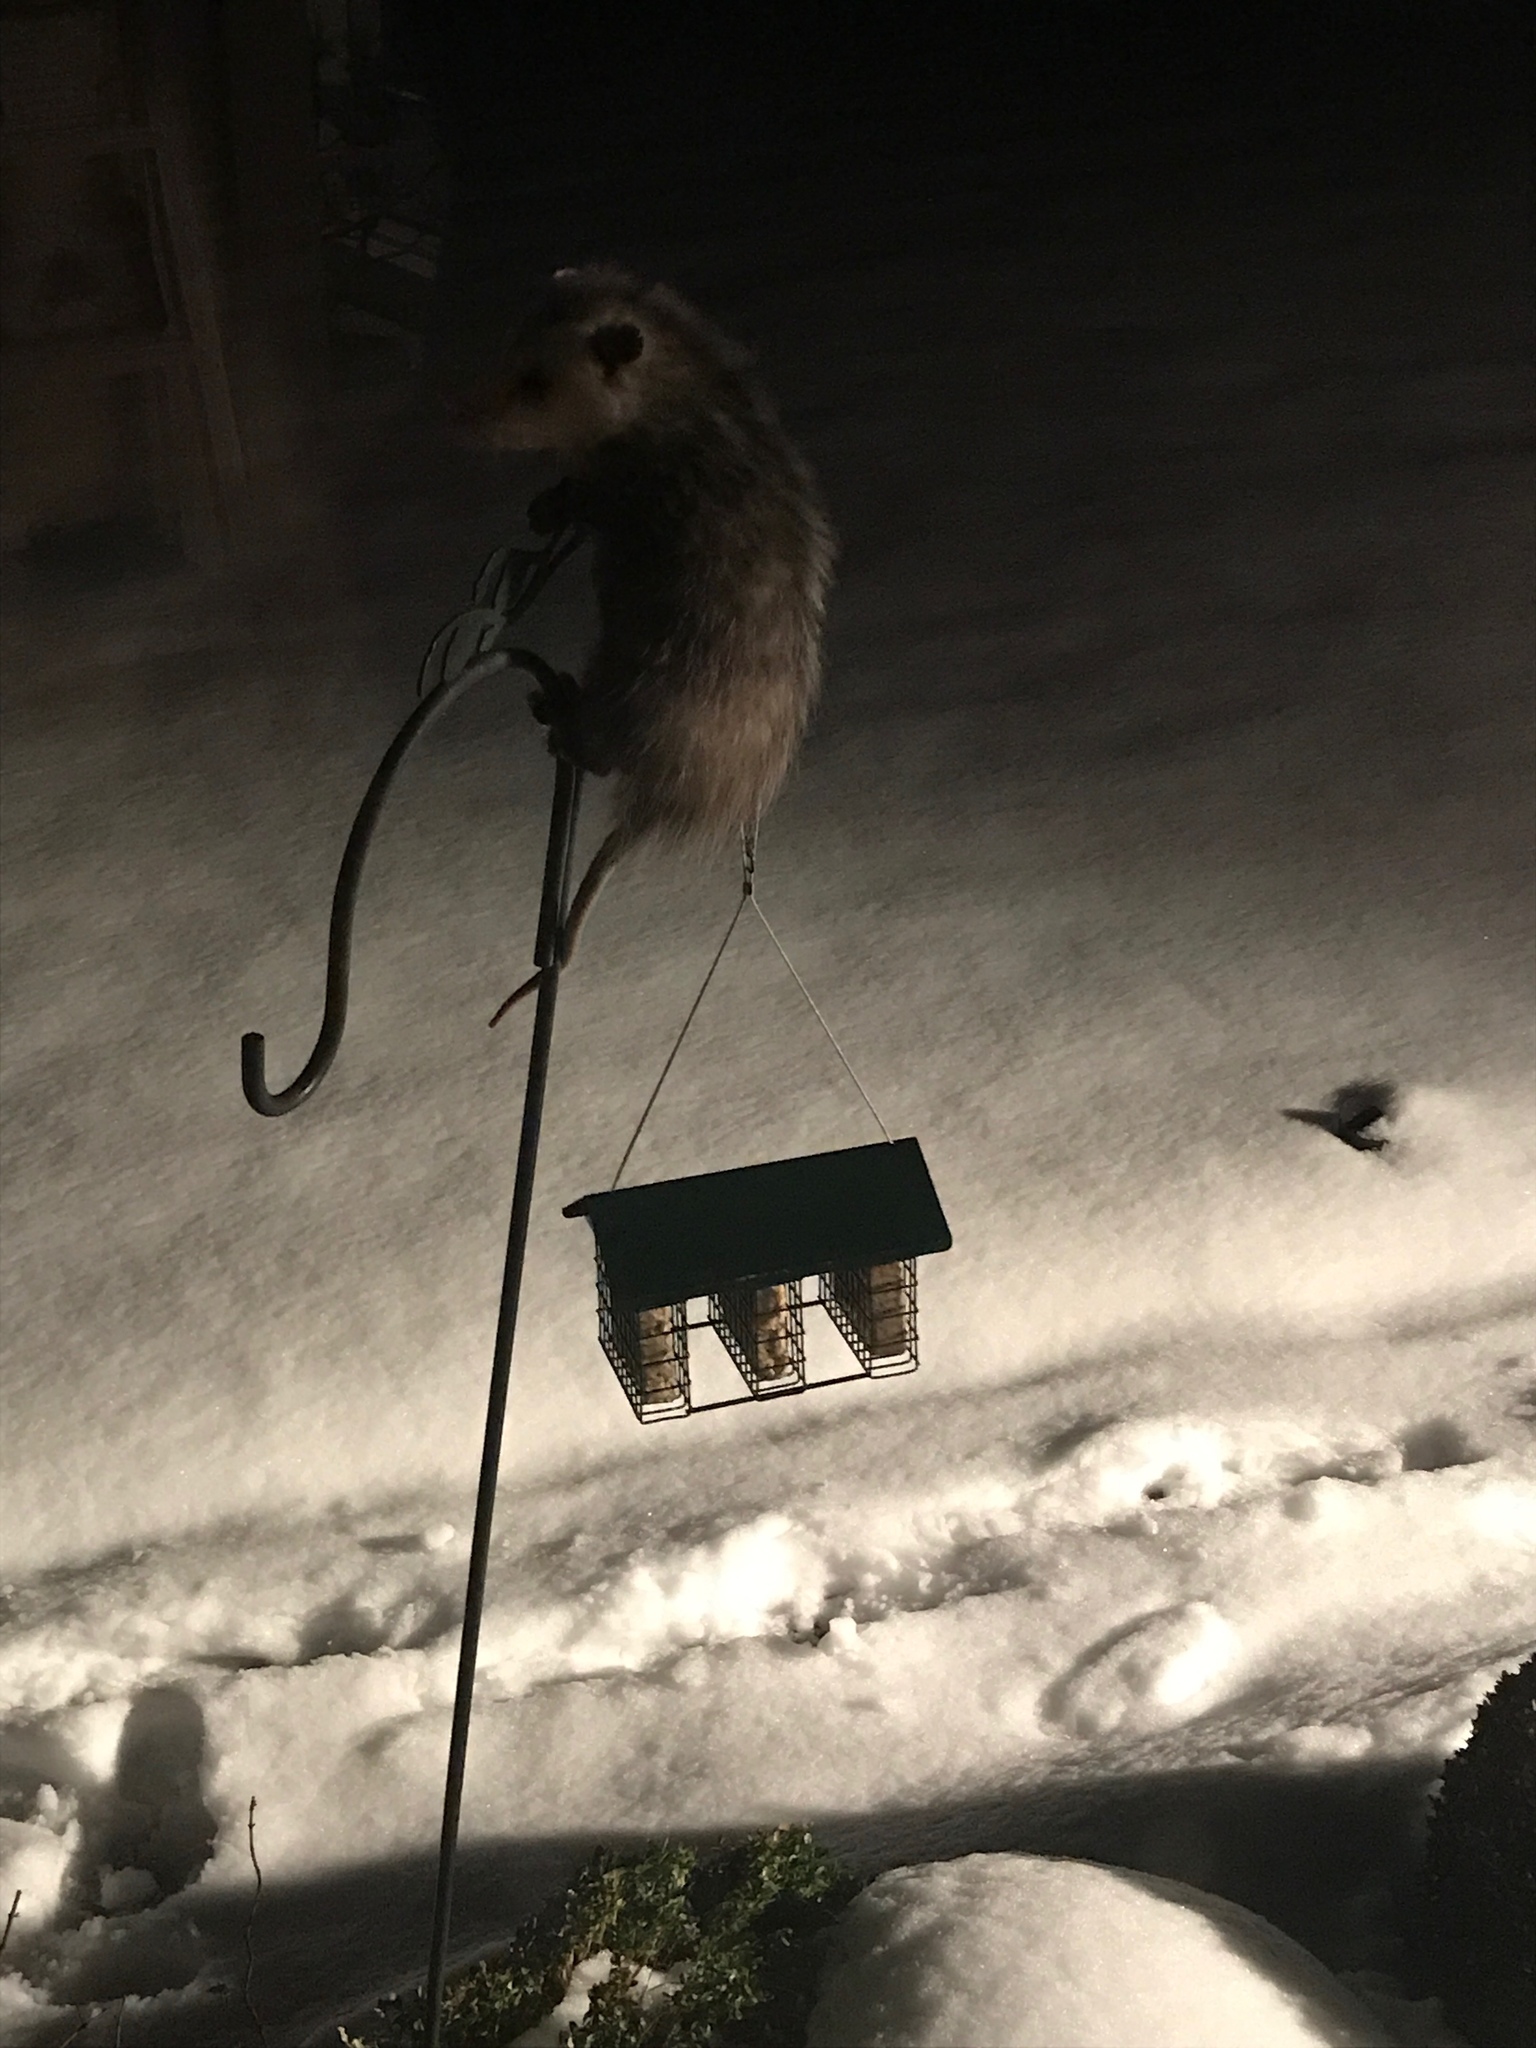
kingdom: Animalia
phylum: Chordata
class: Mammalia
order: Didelphimorphia
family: Didelphidae
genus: Didelphis
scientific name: Didelphis virginiana
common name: Virginia opossum
